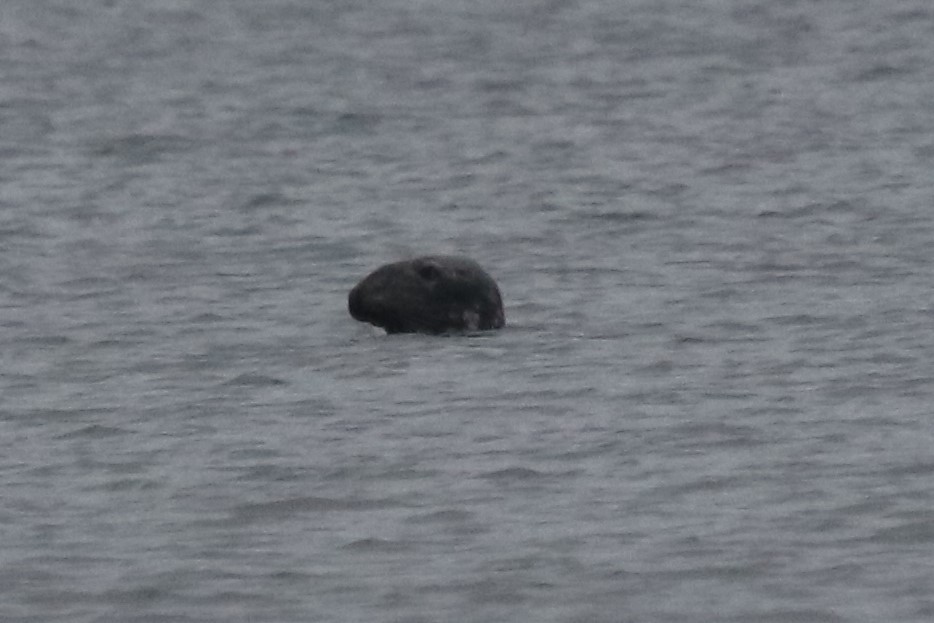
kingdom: Animalia
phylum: Chordata
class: Mammalia
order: Carnivora
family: Phocidae
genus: Halichoerus
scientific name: Halichoerus grypus
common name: Grey seal
